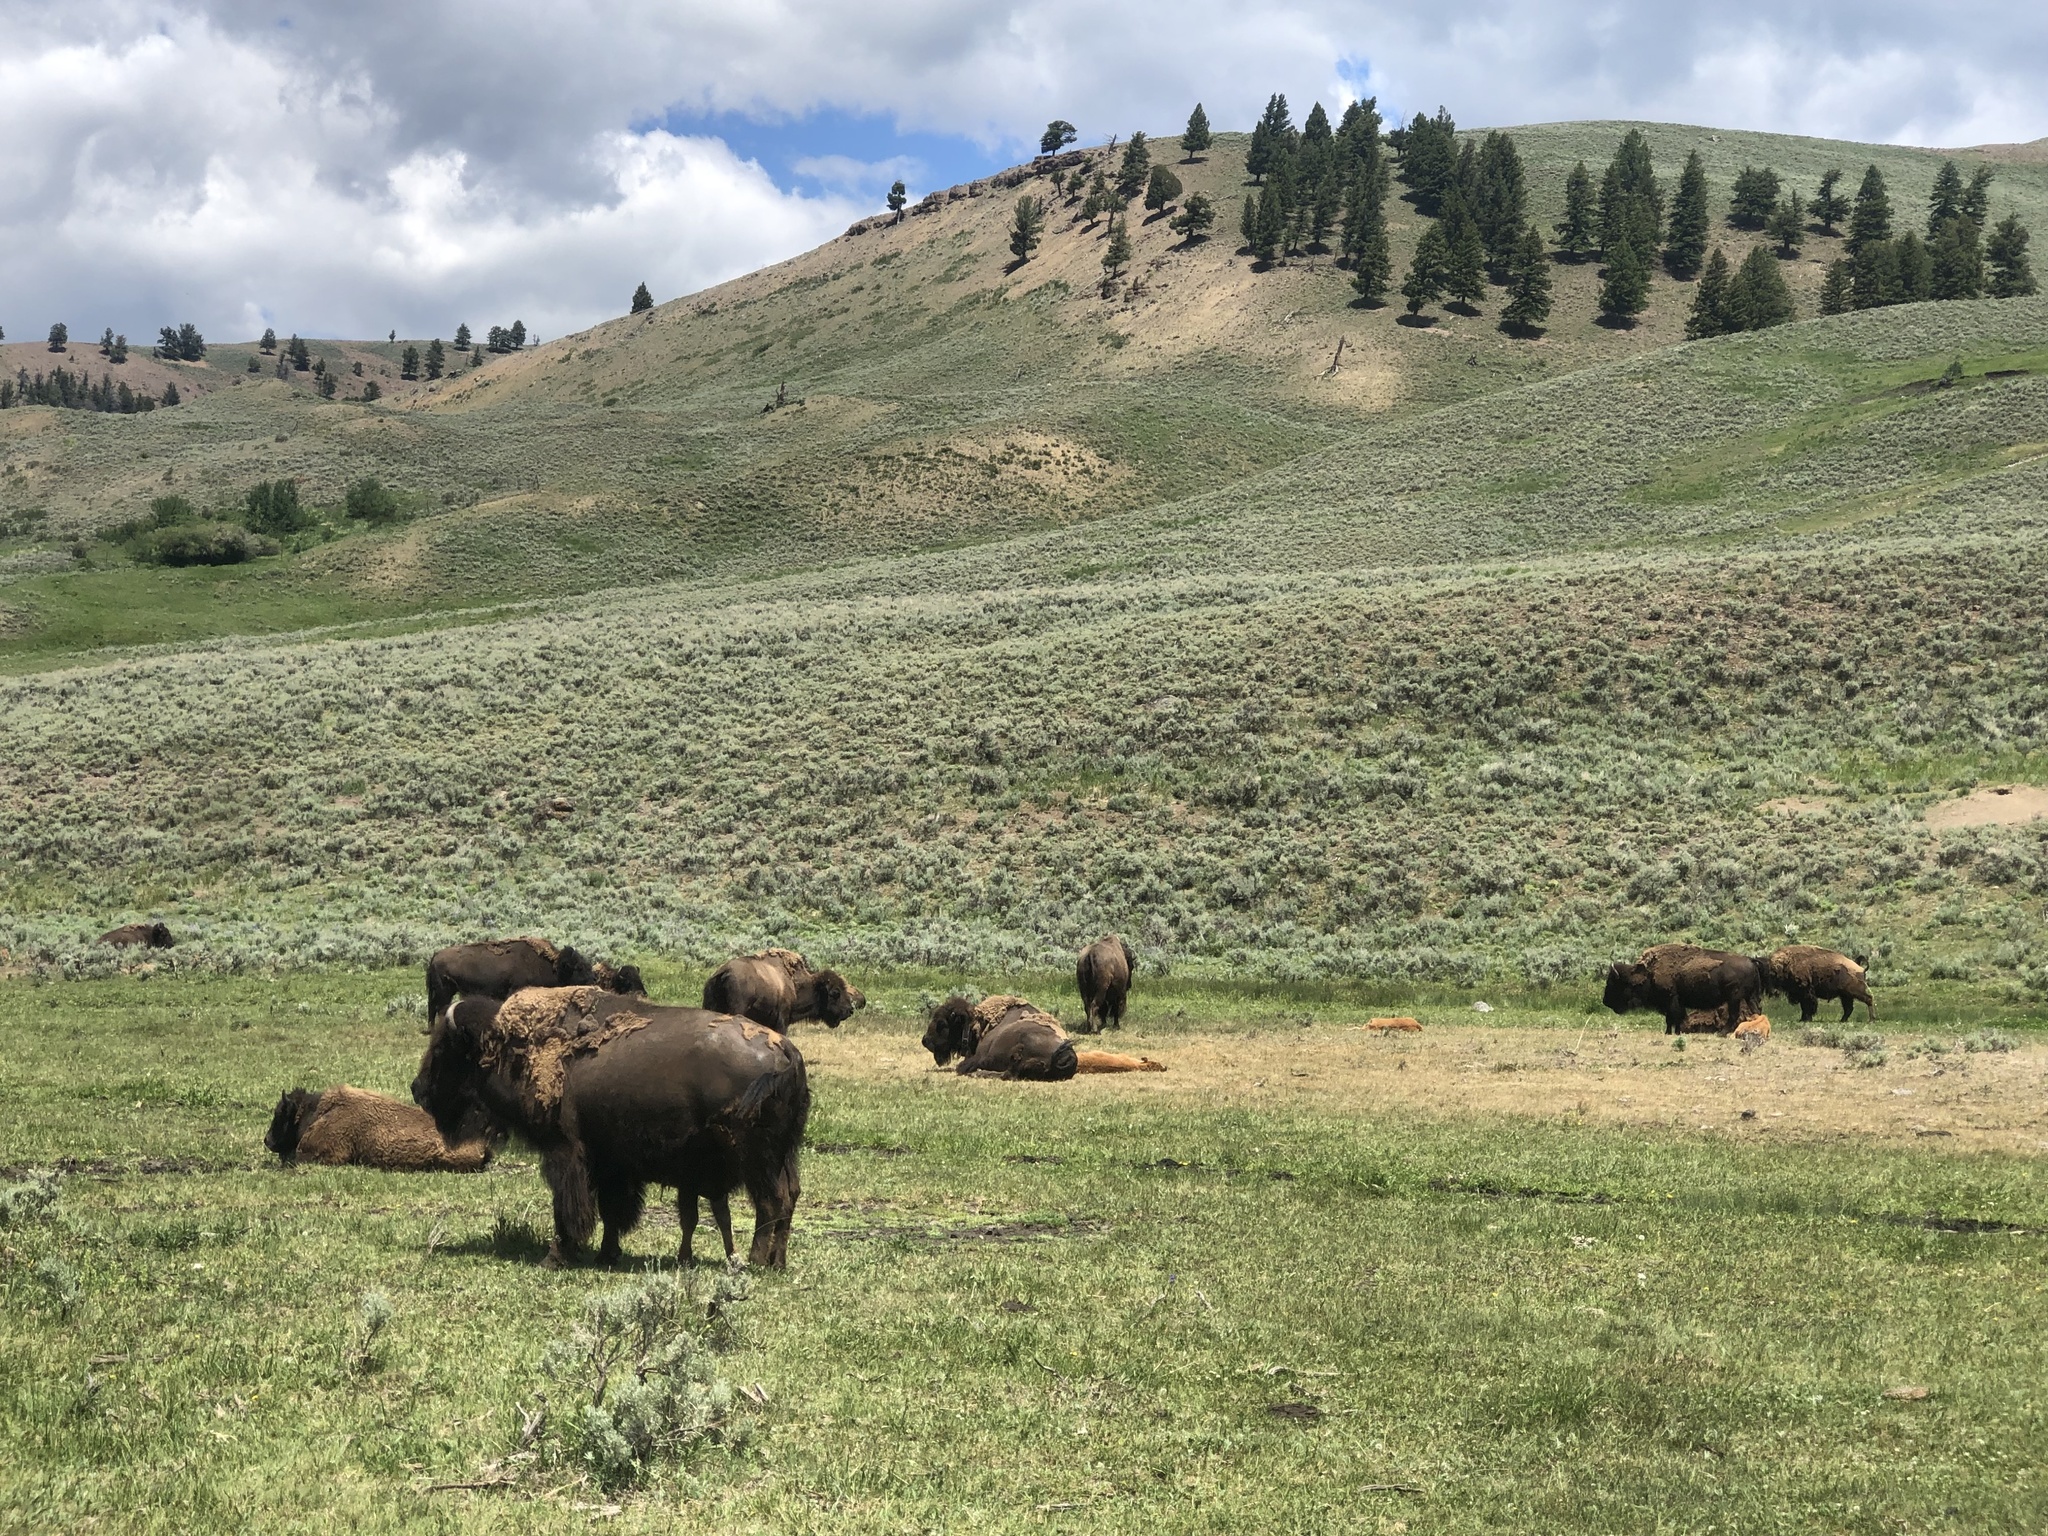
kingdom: Animalia
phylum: Chordata
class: Mammalia
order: Artiodactyla
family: Bovidae
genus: Bison
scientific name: Bison bison
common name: American bison
